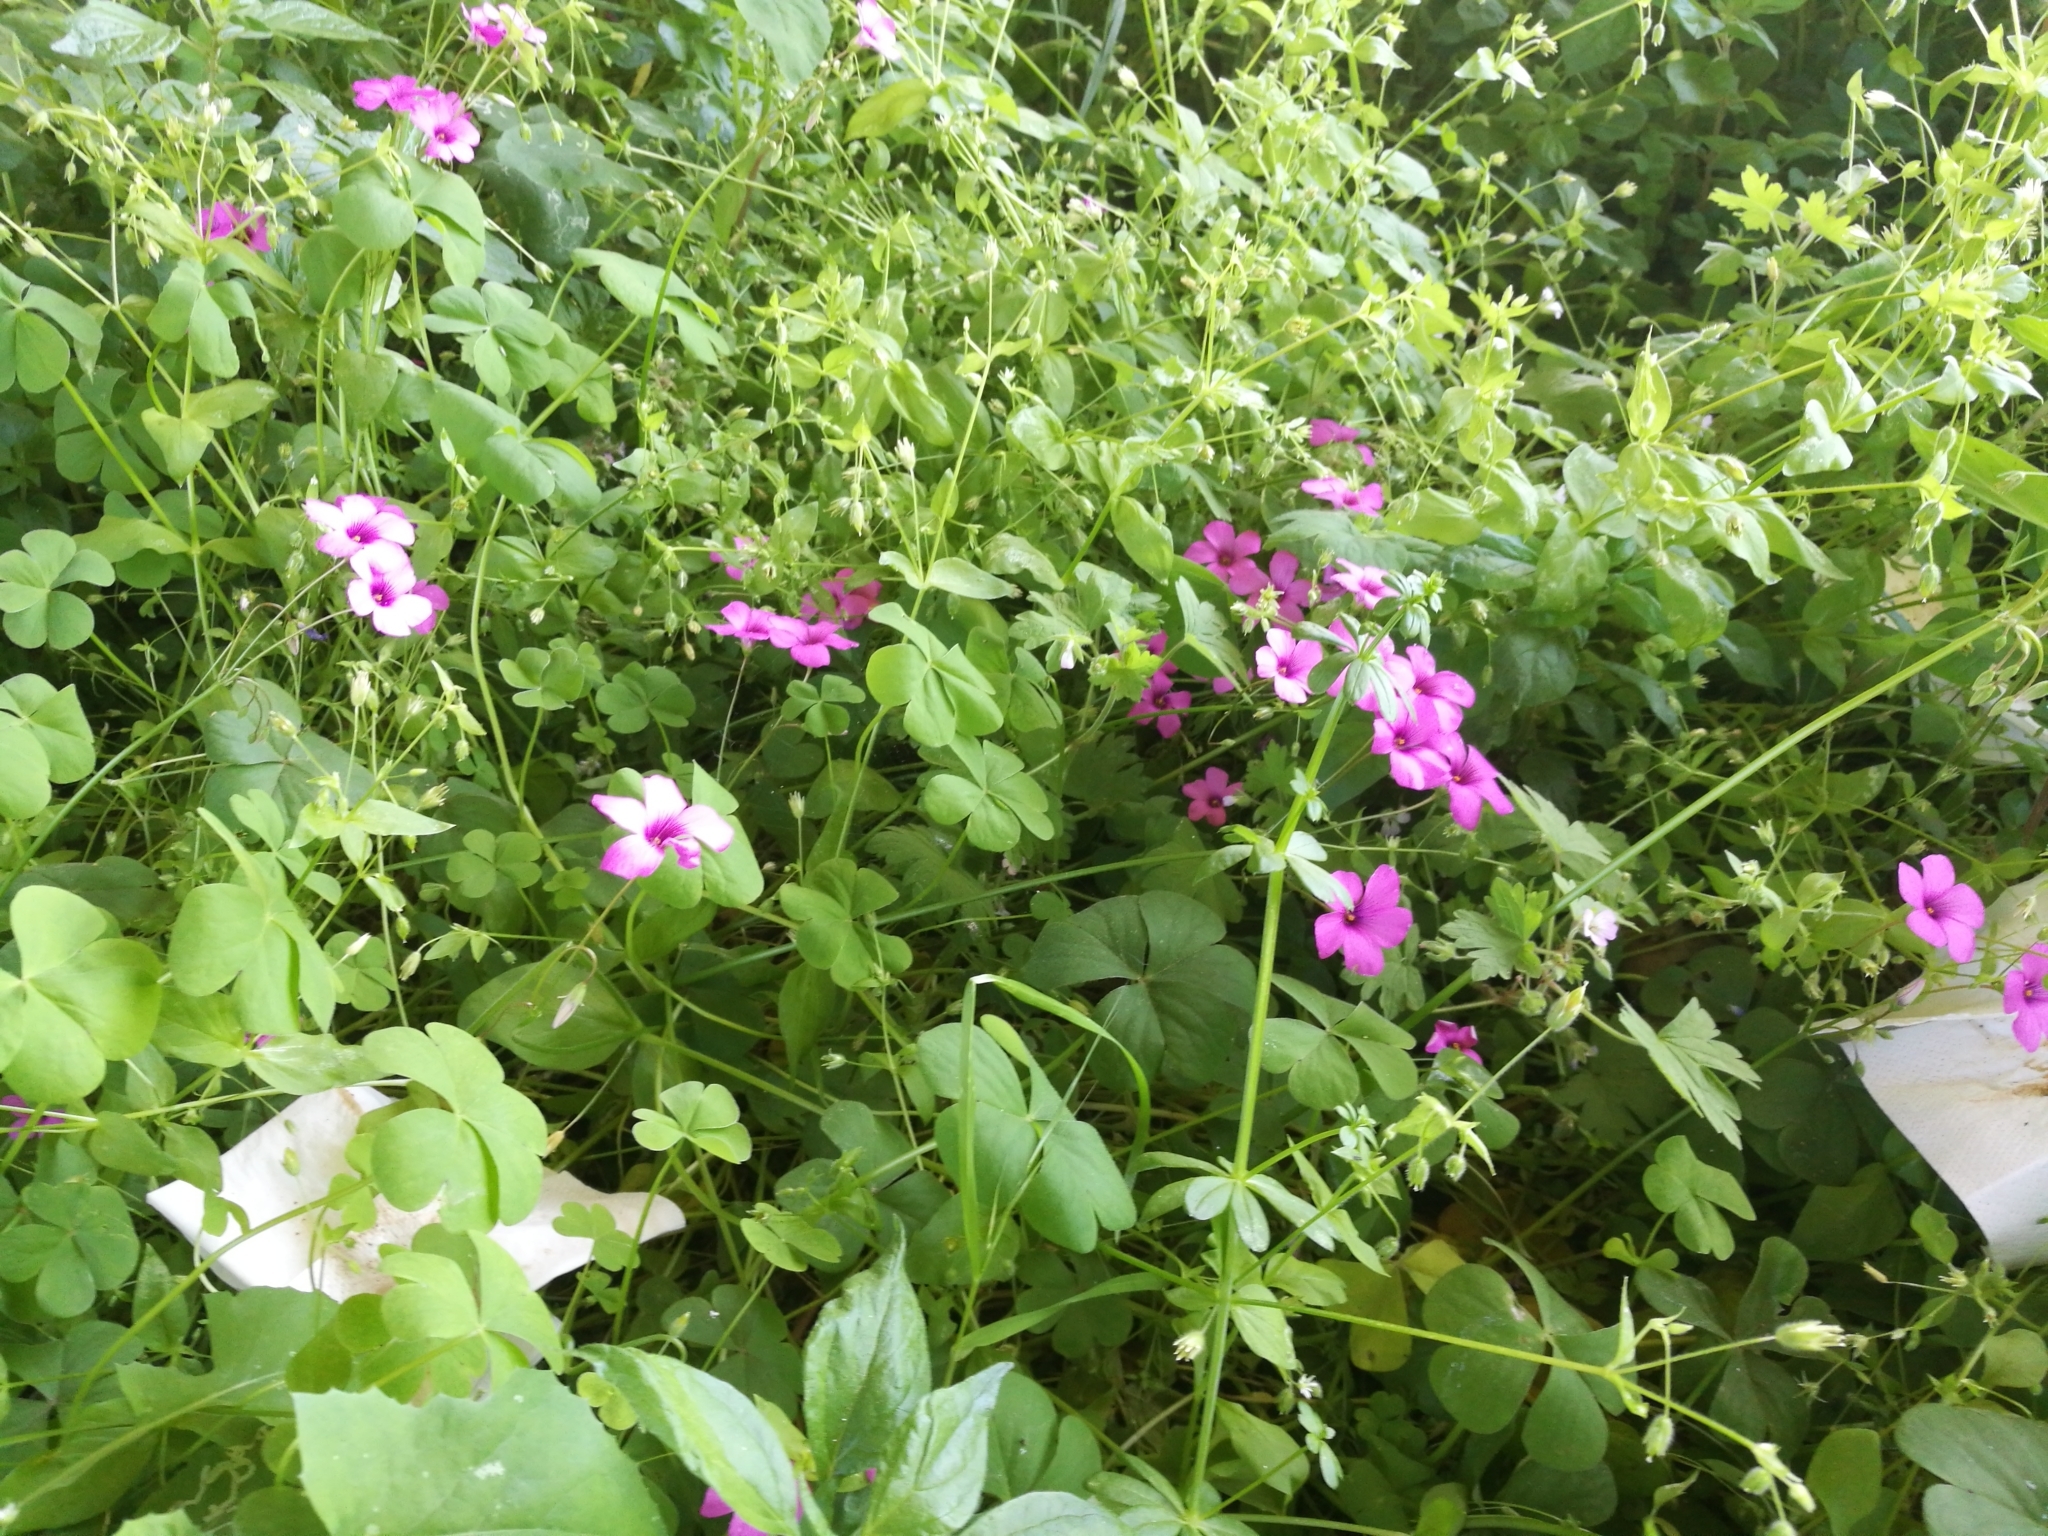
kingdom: Plantae
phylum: Tracheophyta
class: Magnoliopsida
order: Oxalidales
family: Oxalidaceae
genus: Oxalis
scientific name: Oxalis articulata
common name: Pink-sorrel
